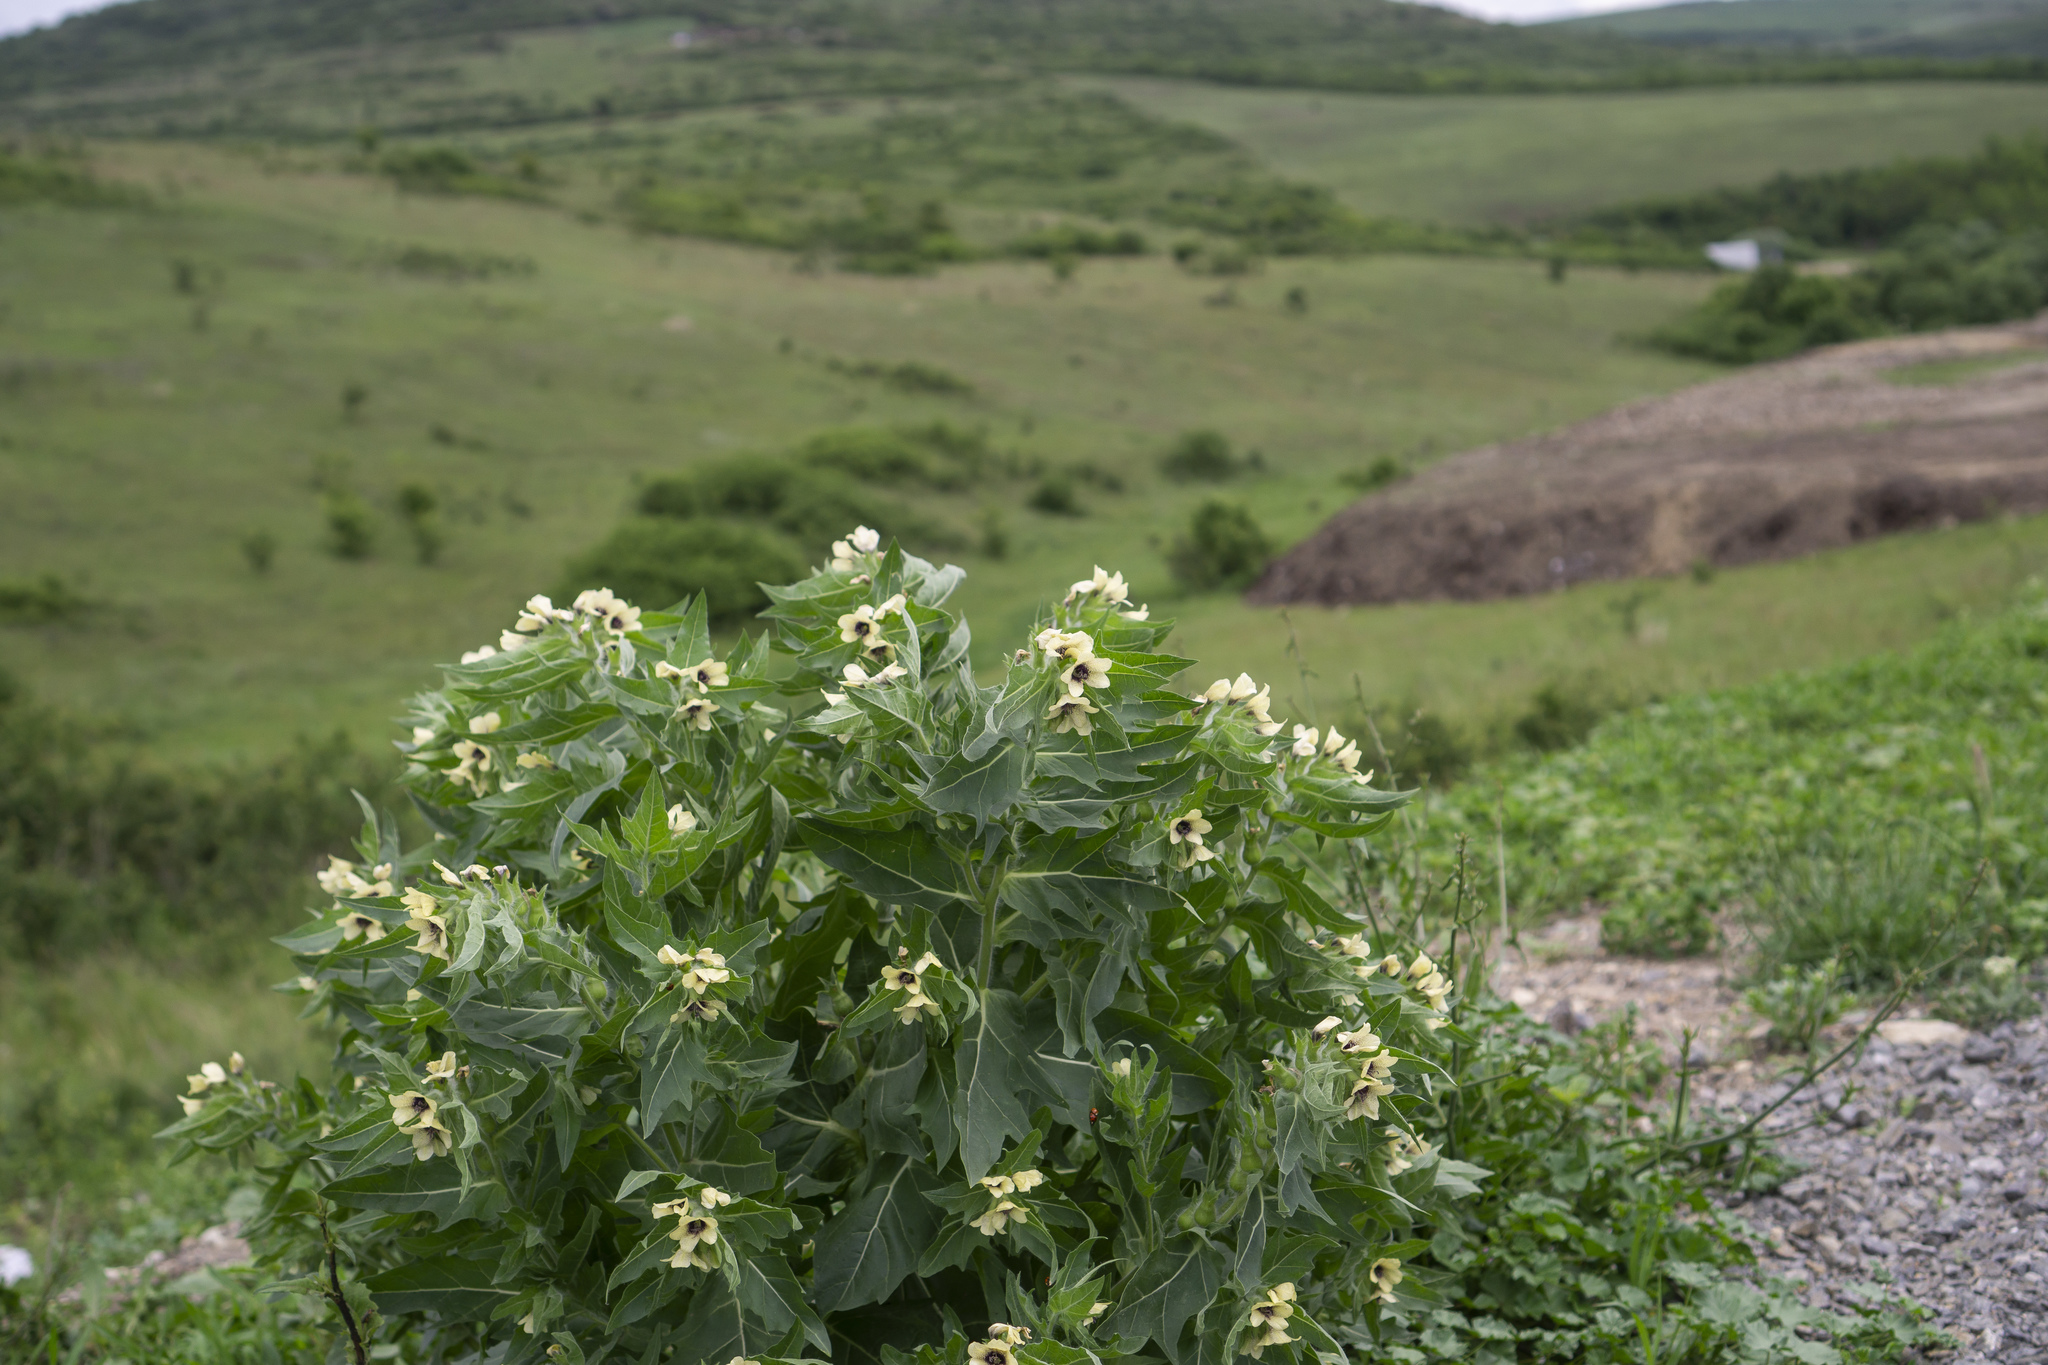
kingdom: Plantae
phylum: Tracheophyta
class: Magnoliopsida
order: Solanales
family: Solanaceae
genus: Hyoscyamus
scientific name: Hyoscyamus niger
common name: Henbane
